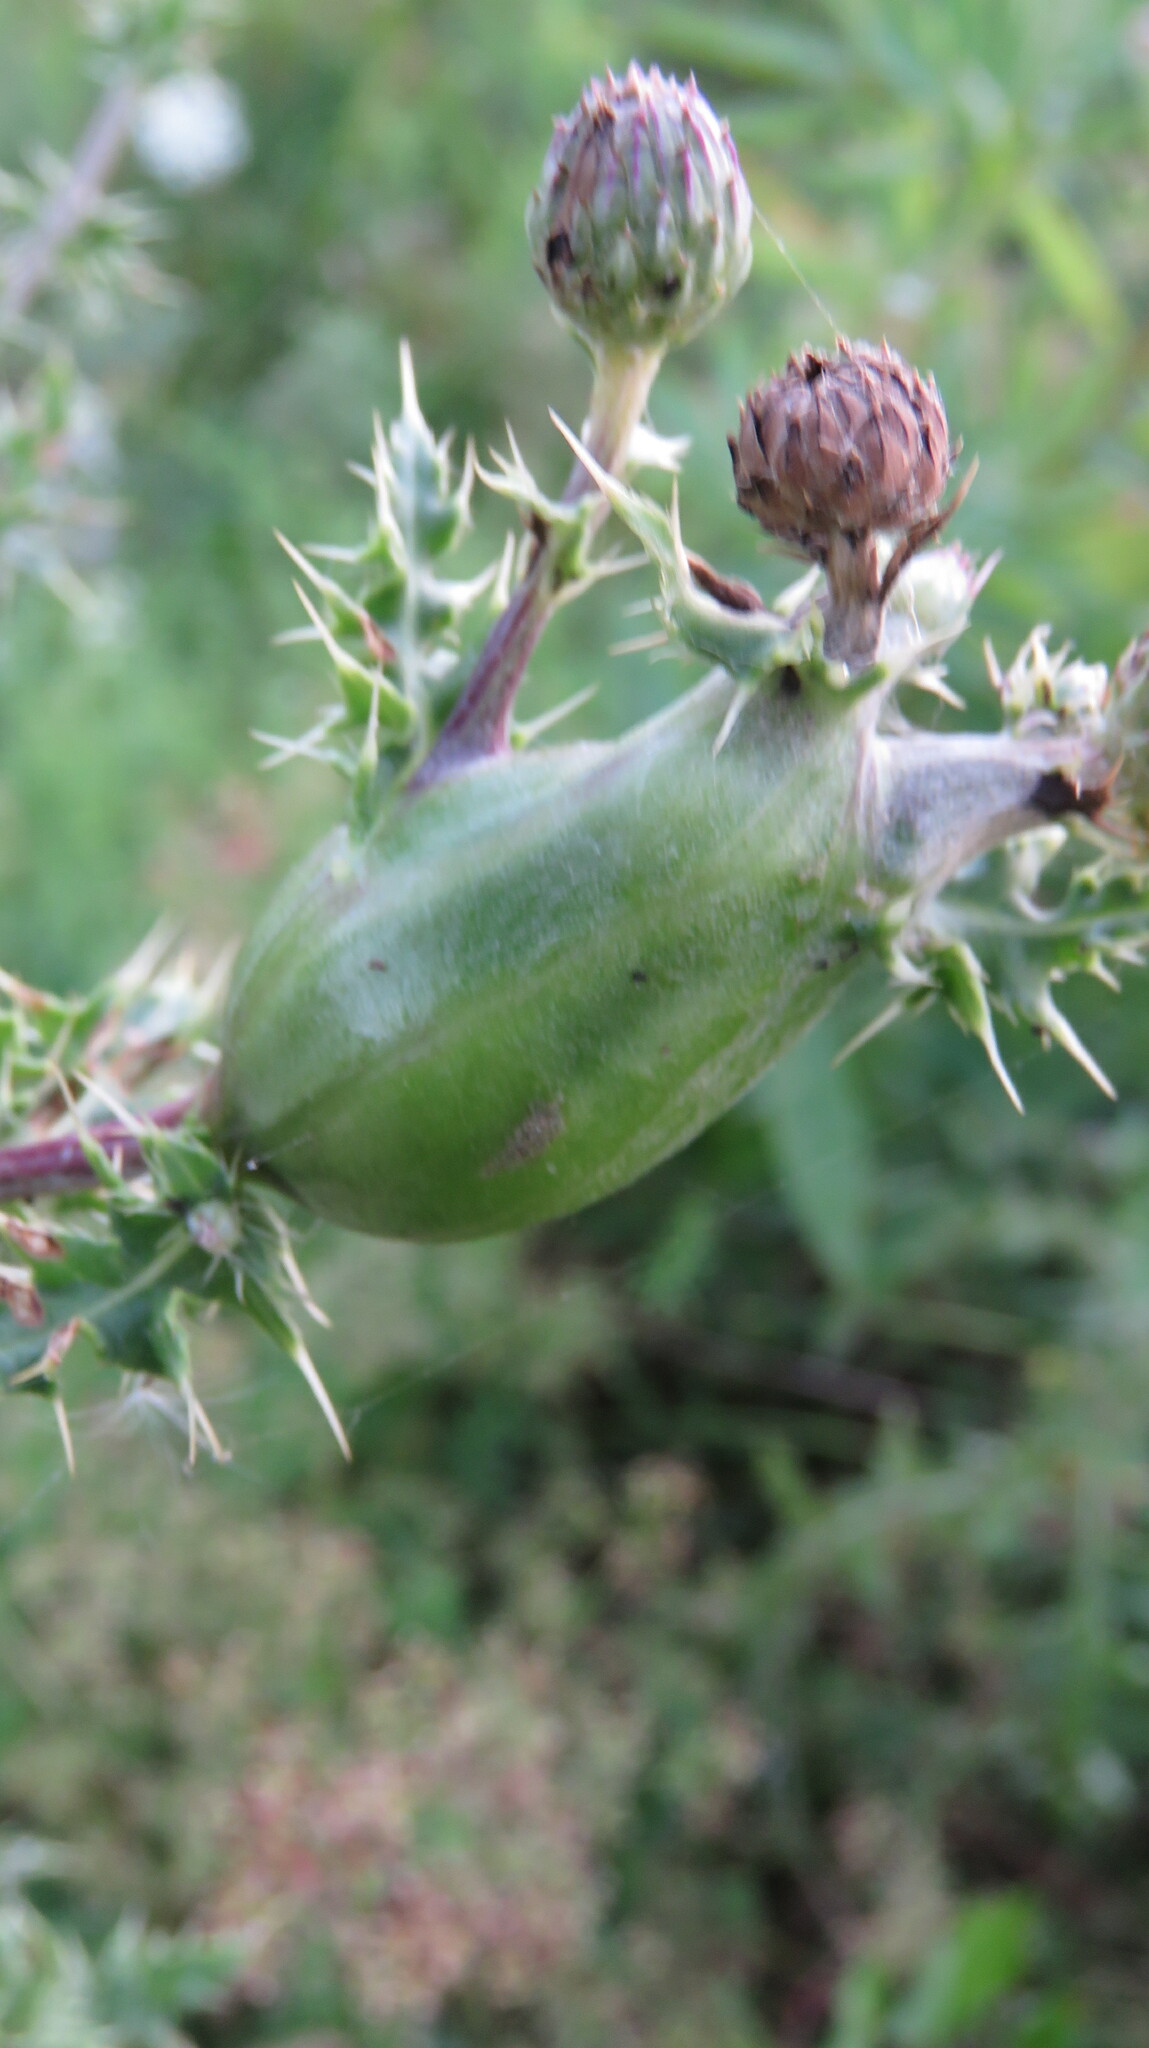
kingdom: Animalia
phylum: Arthropoda
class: Insecta
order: Diptera
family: Tephritidae
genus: Urophora
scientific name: Urophora cardui
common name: Fruit fly
